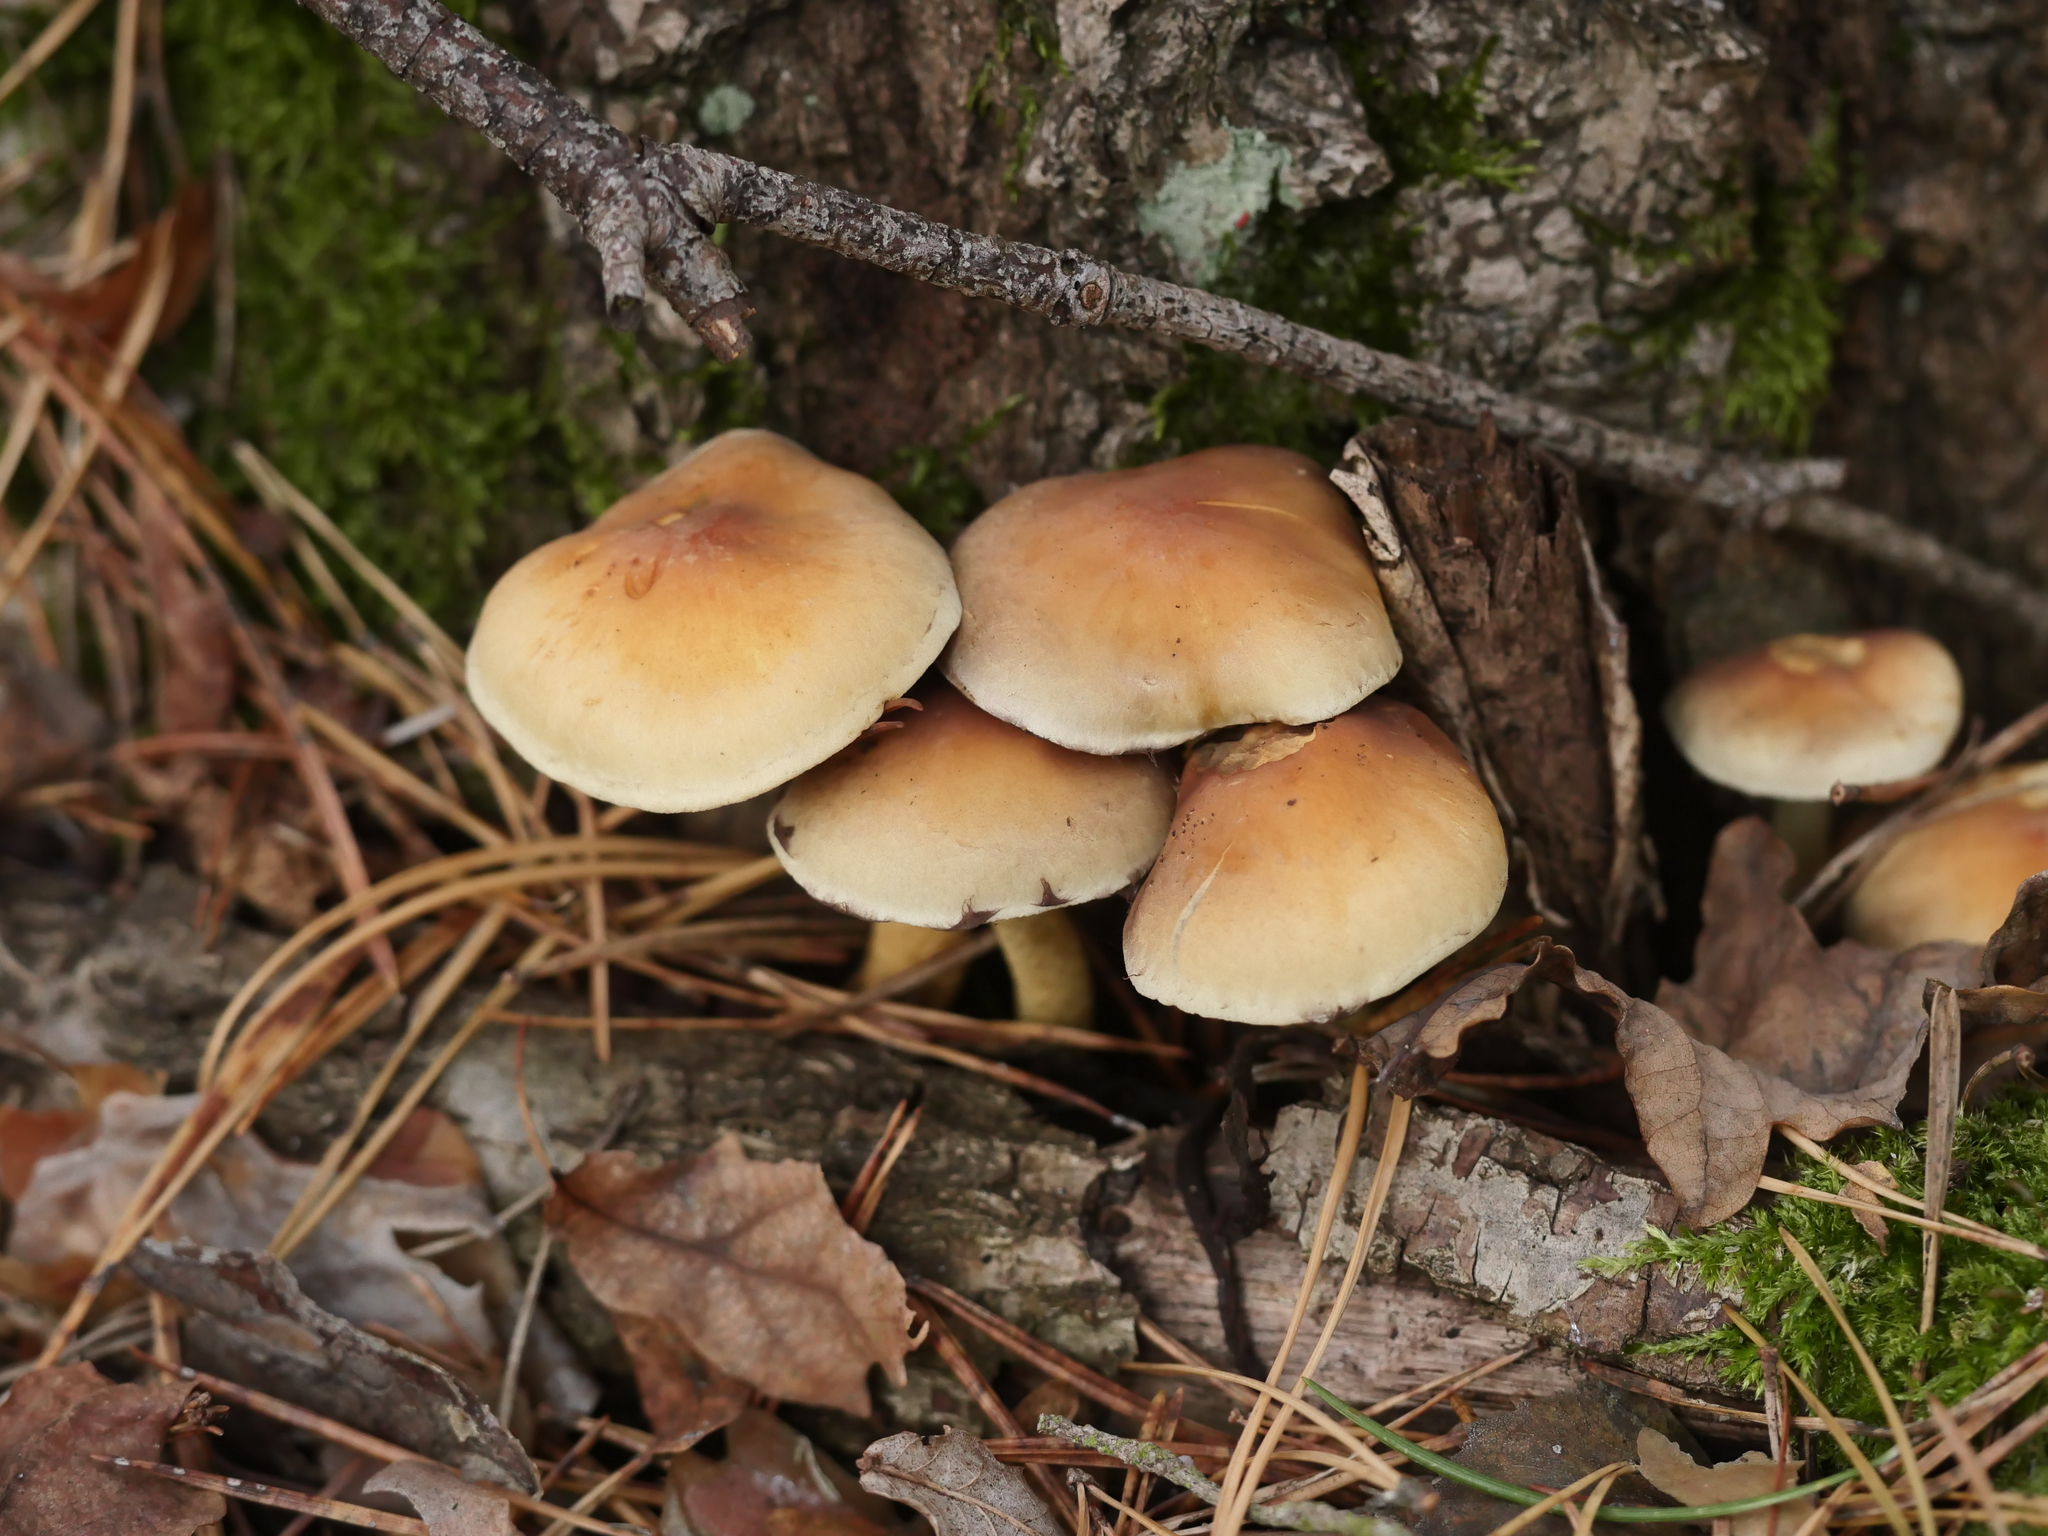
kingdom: Fungi
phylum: Basidiomycota
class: Agaricomycetes
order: Agaricales
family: Strophariaceae
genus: Hypholoma
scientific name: Hypholoma fasciculare
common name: Sulphur tuft
